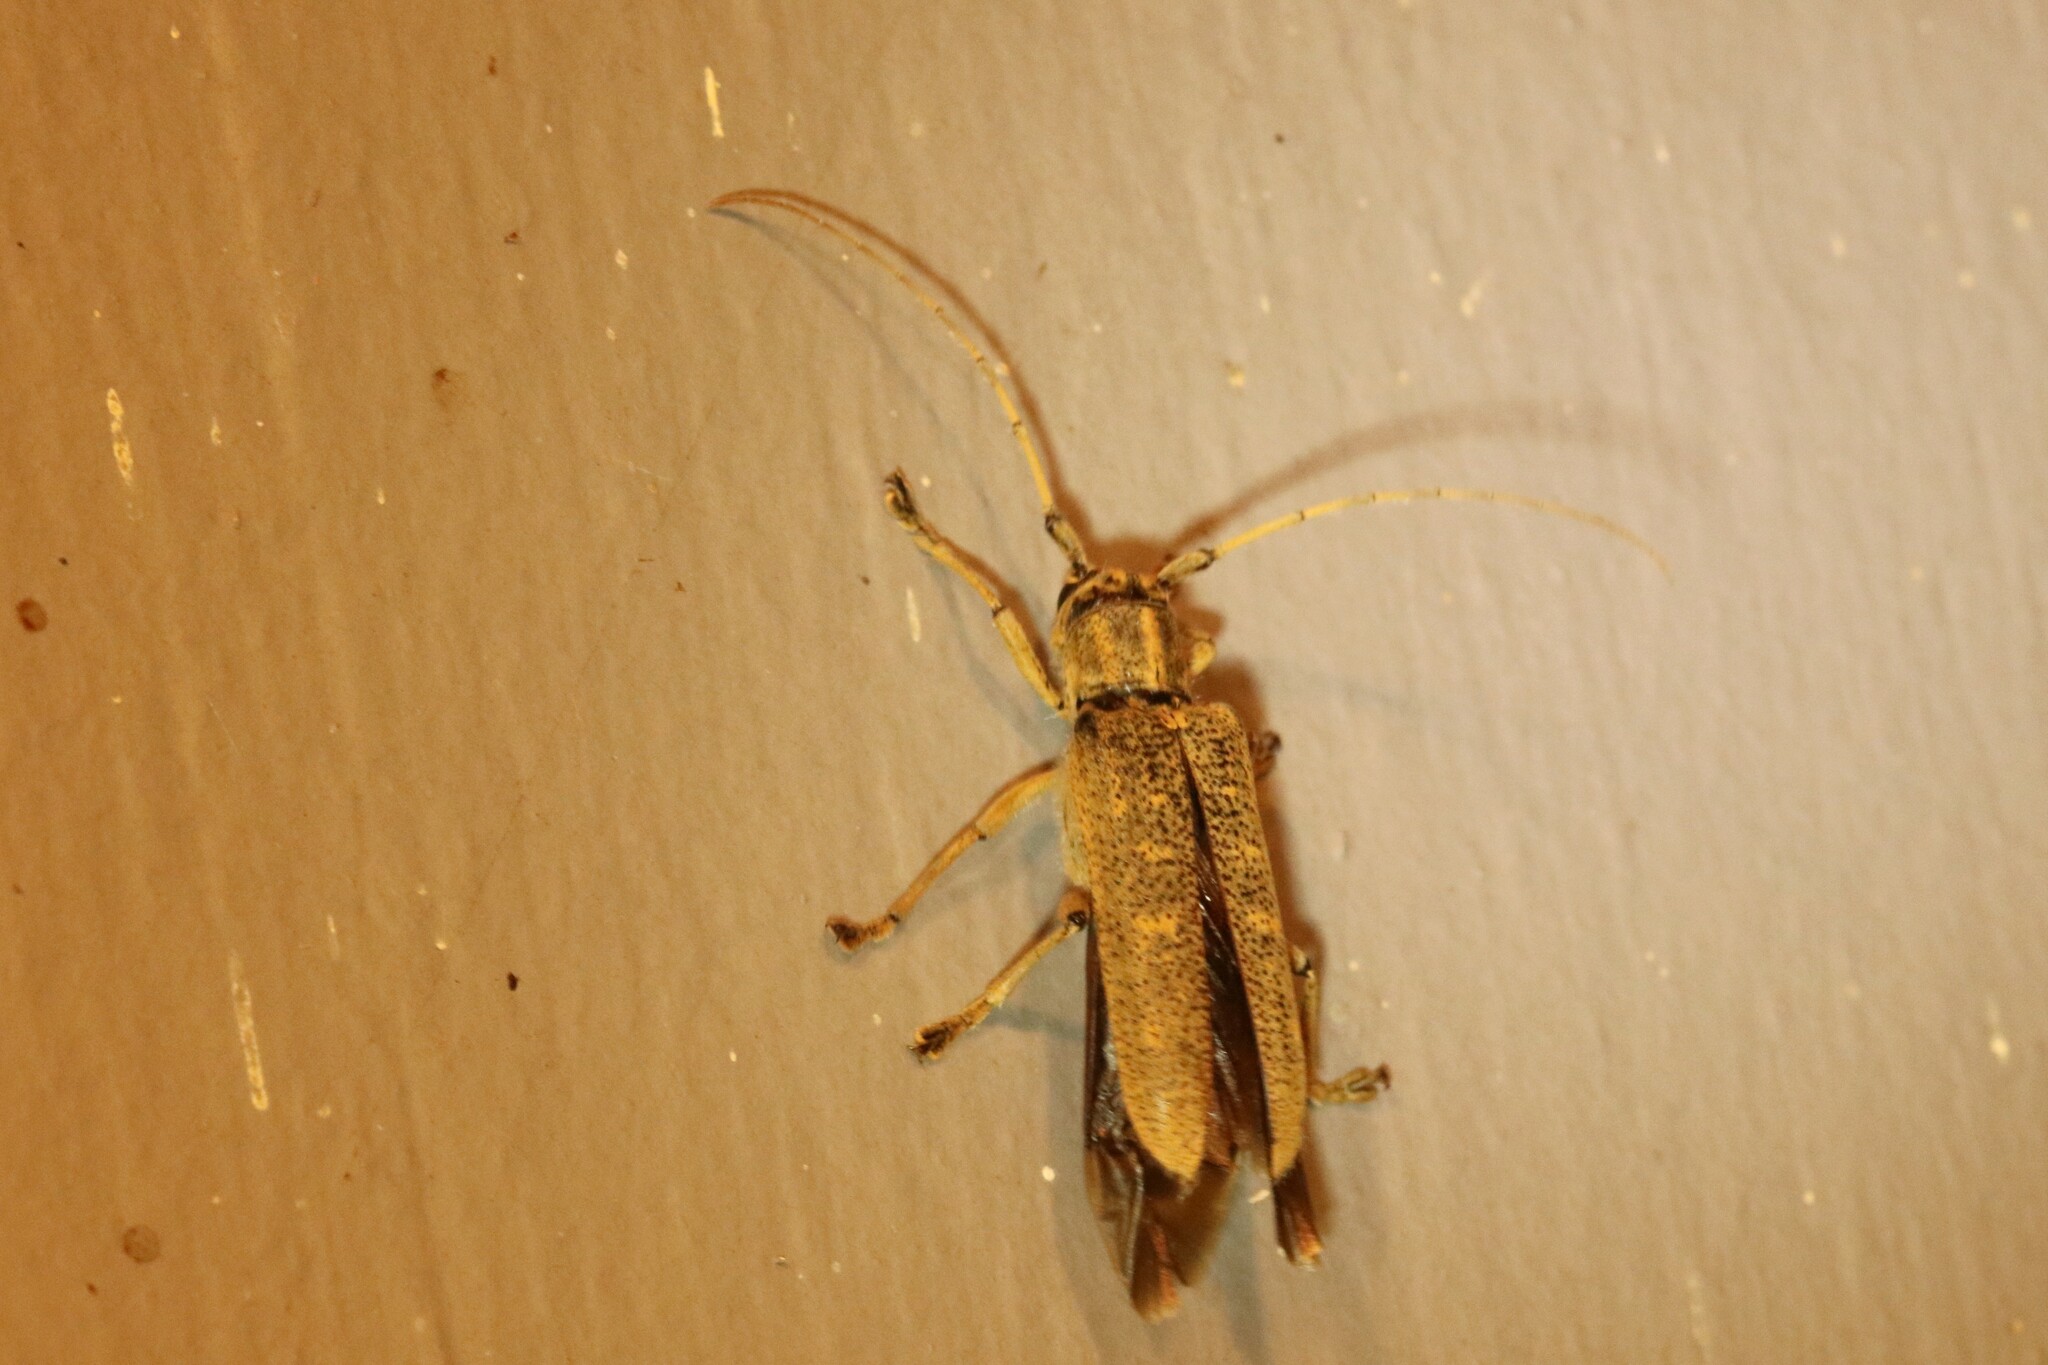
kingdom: Animalia
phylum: Arthropoda
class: Insecta
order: Coleoptera
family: Cerambycidae
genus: Saperda
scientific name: Saperda calcarata
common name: Poplar borer
